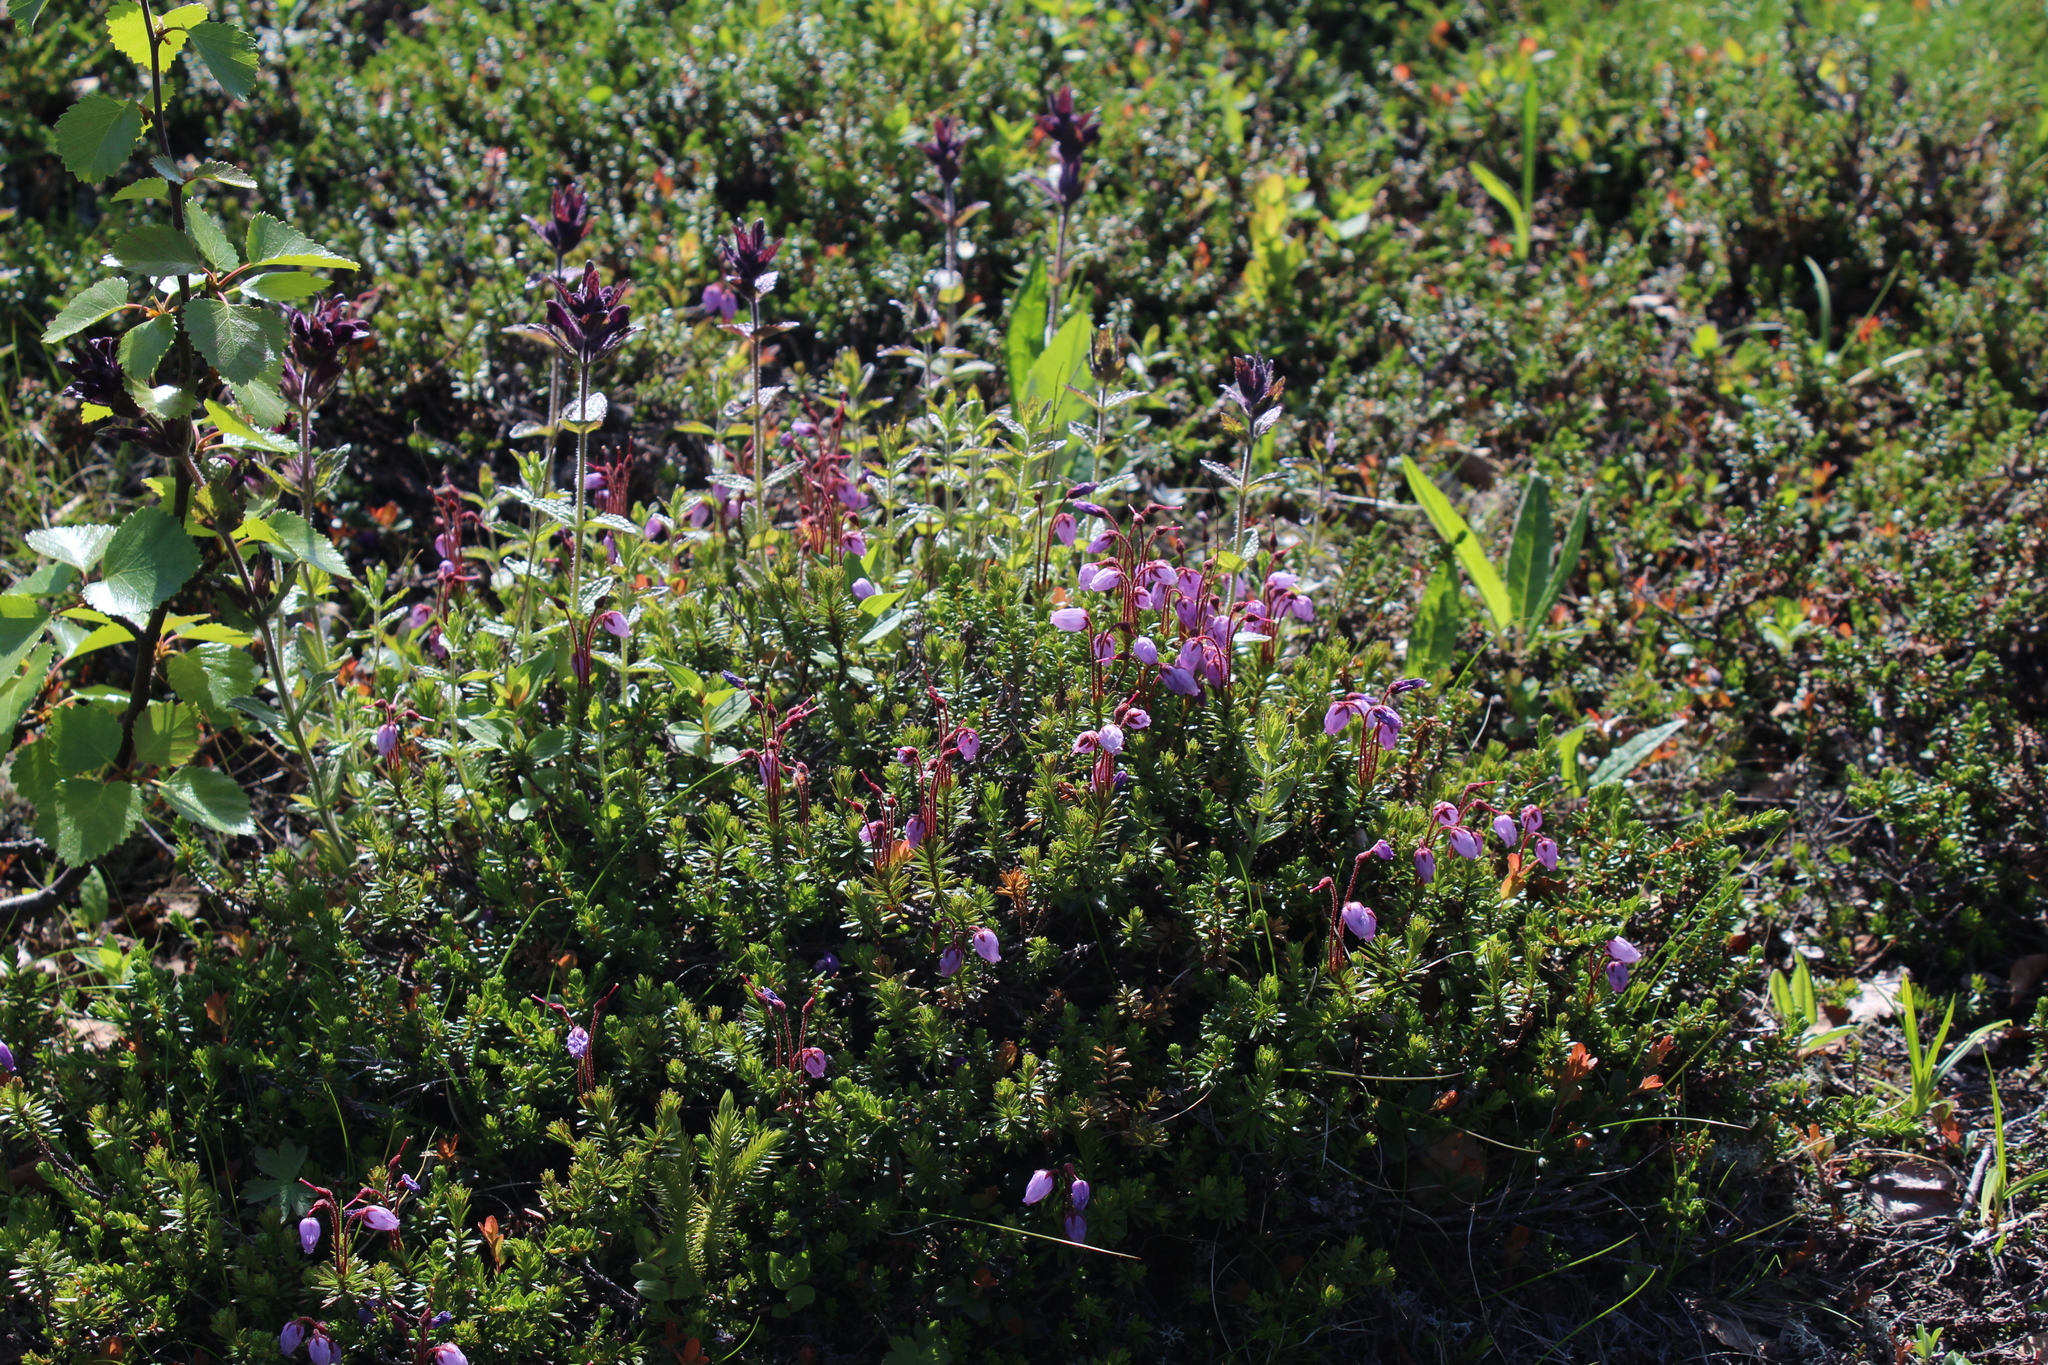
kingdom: Plantae
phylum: Tracheophyta
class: Magnoliopsida
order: Ericales
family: Ericaceae
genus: Phyllodoce
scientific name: Phyllodoce caerulea
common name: Blue heath
